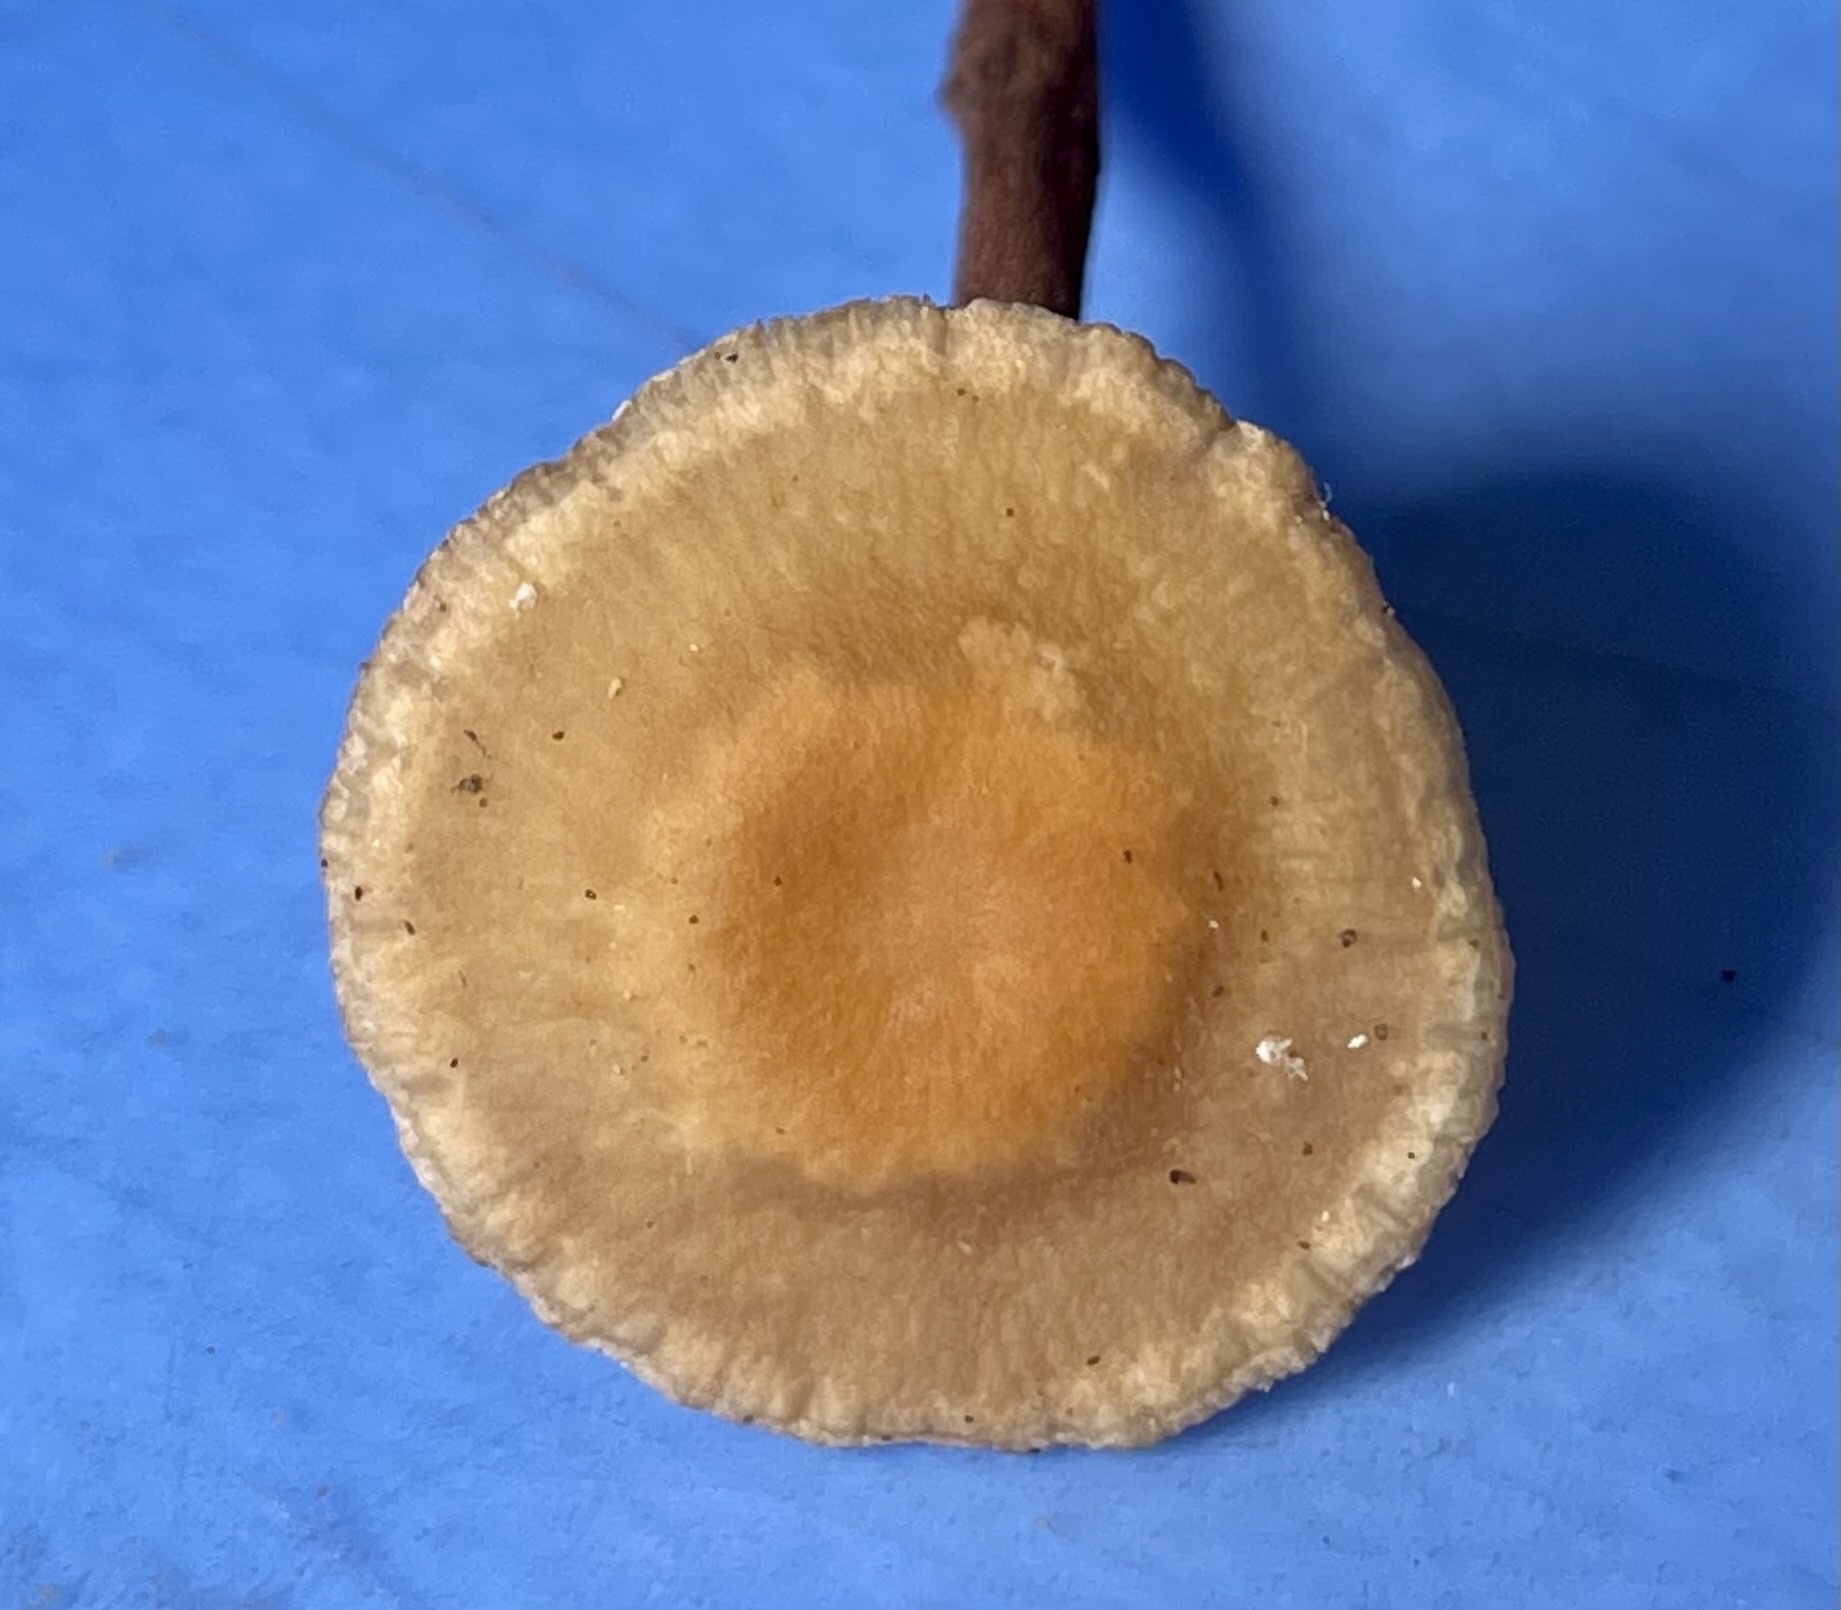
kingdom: Fungi
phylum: Basidiomycota
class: Agaricomycetes
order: Agaricales
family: Omphalotaceae
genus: Gymnopus
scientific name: Gymnopus semihirtipes
